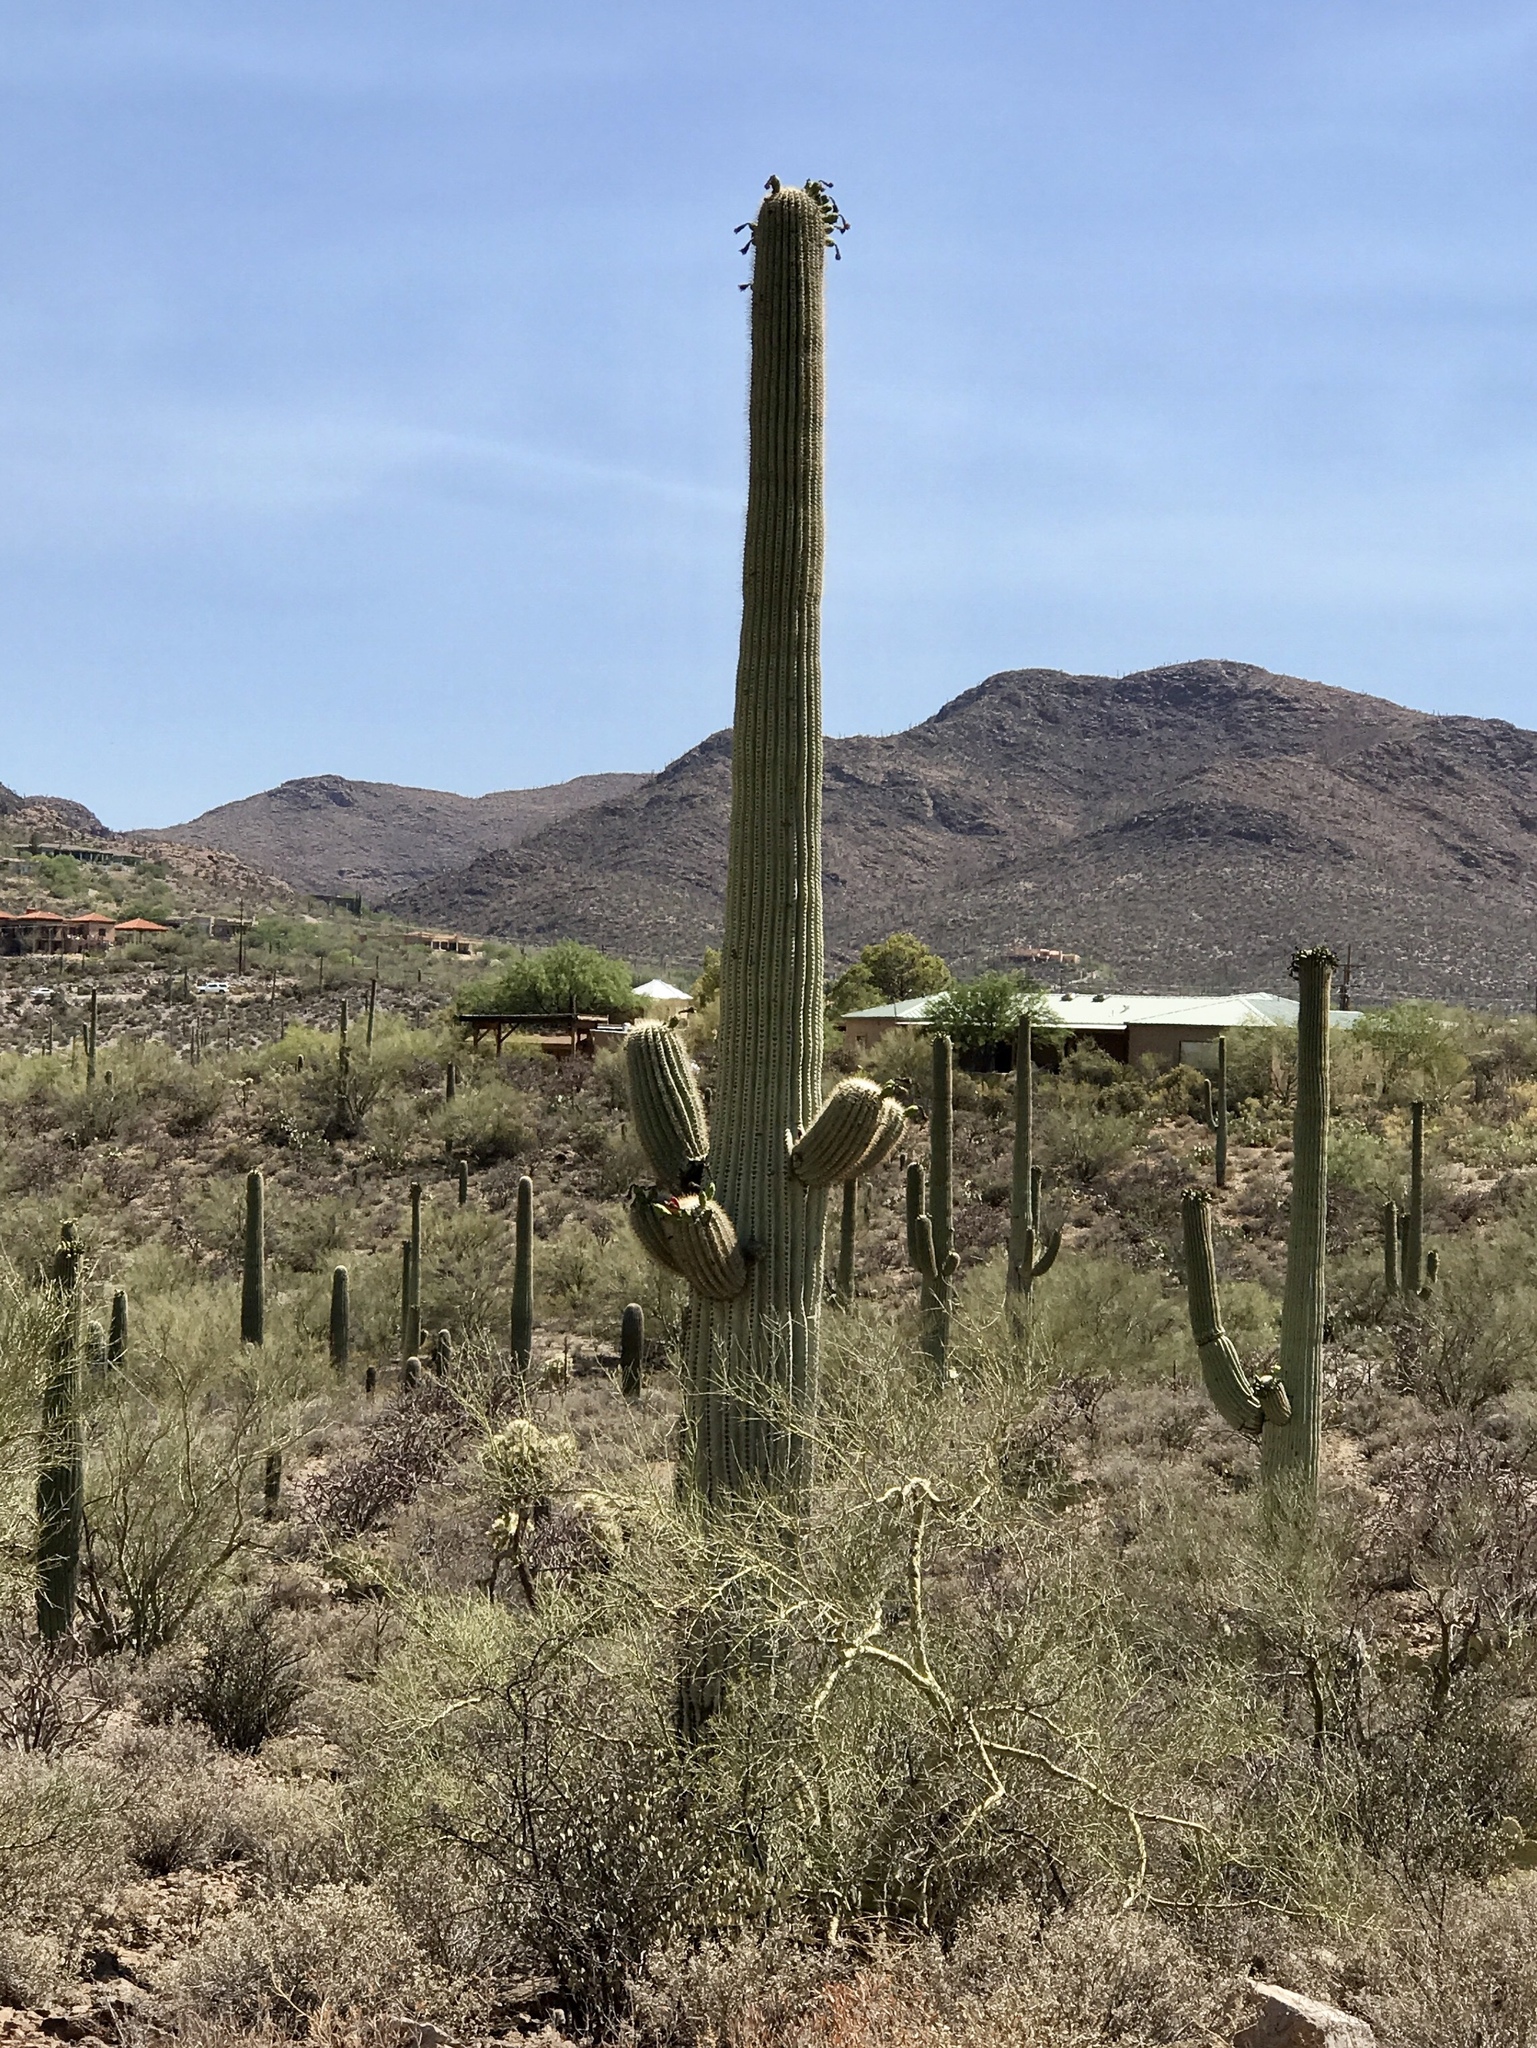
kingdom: Plantae
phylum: Tracheophyta
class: Magnoliopsida
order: Caryophyllales
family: Cactaceae
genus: Carnegiea
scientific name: Carnegiea gigantea
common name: Saguaro
